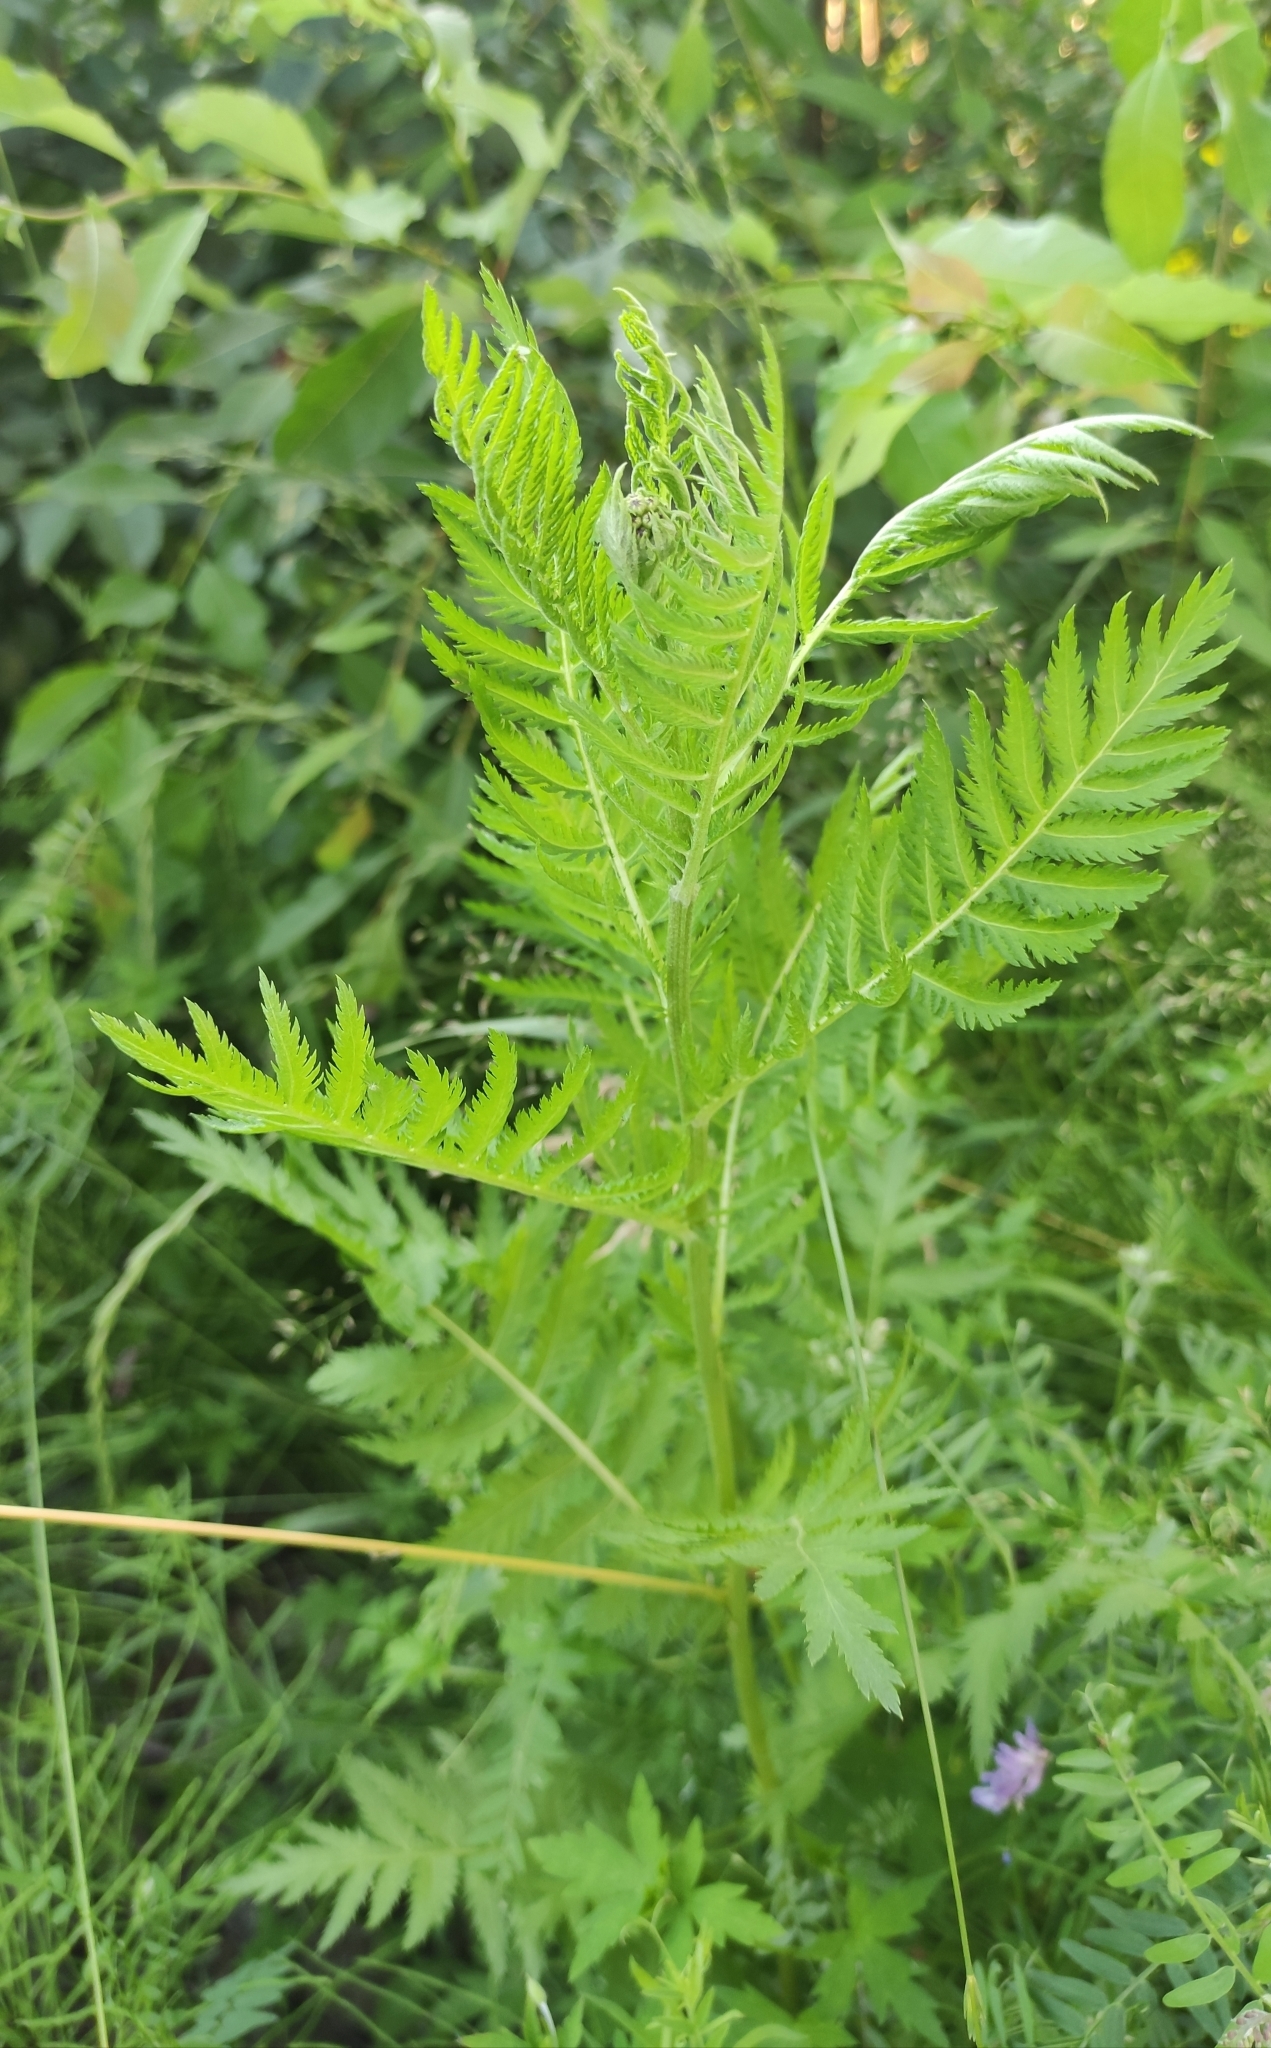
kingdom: Plantae
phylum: Tracheophyta
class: Magnoliopsida
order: Asterales
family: Asteraceae
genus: Tanacetum
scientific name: Tanacetum vulgare
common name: Common tansy
